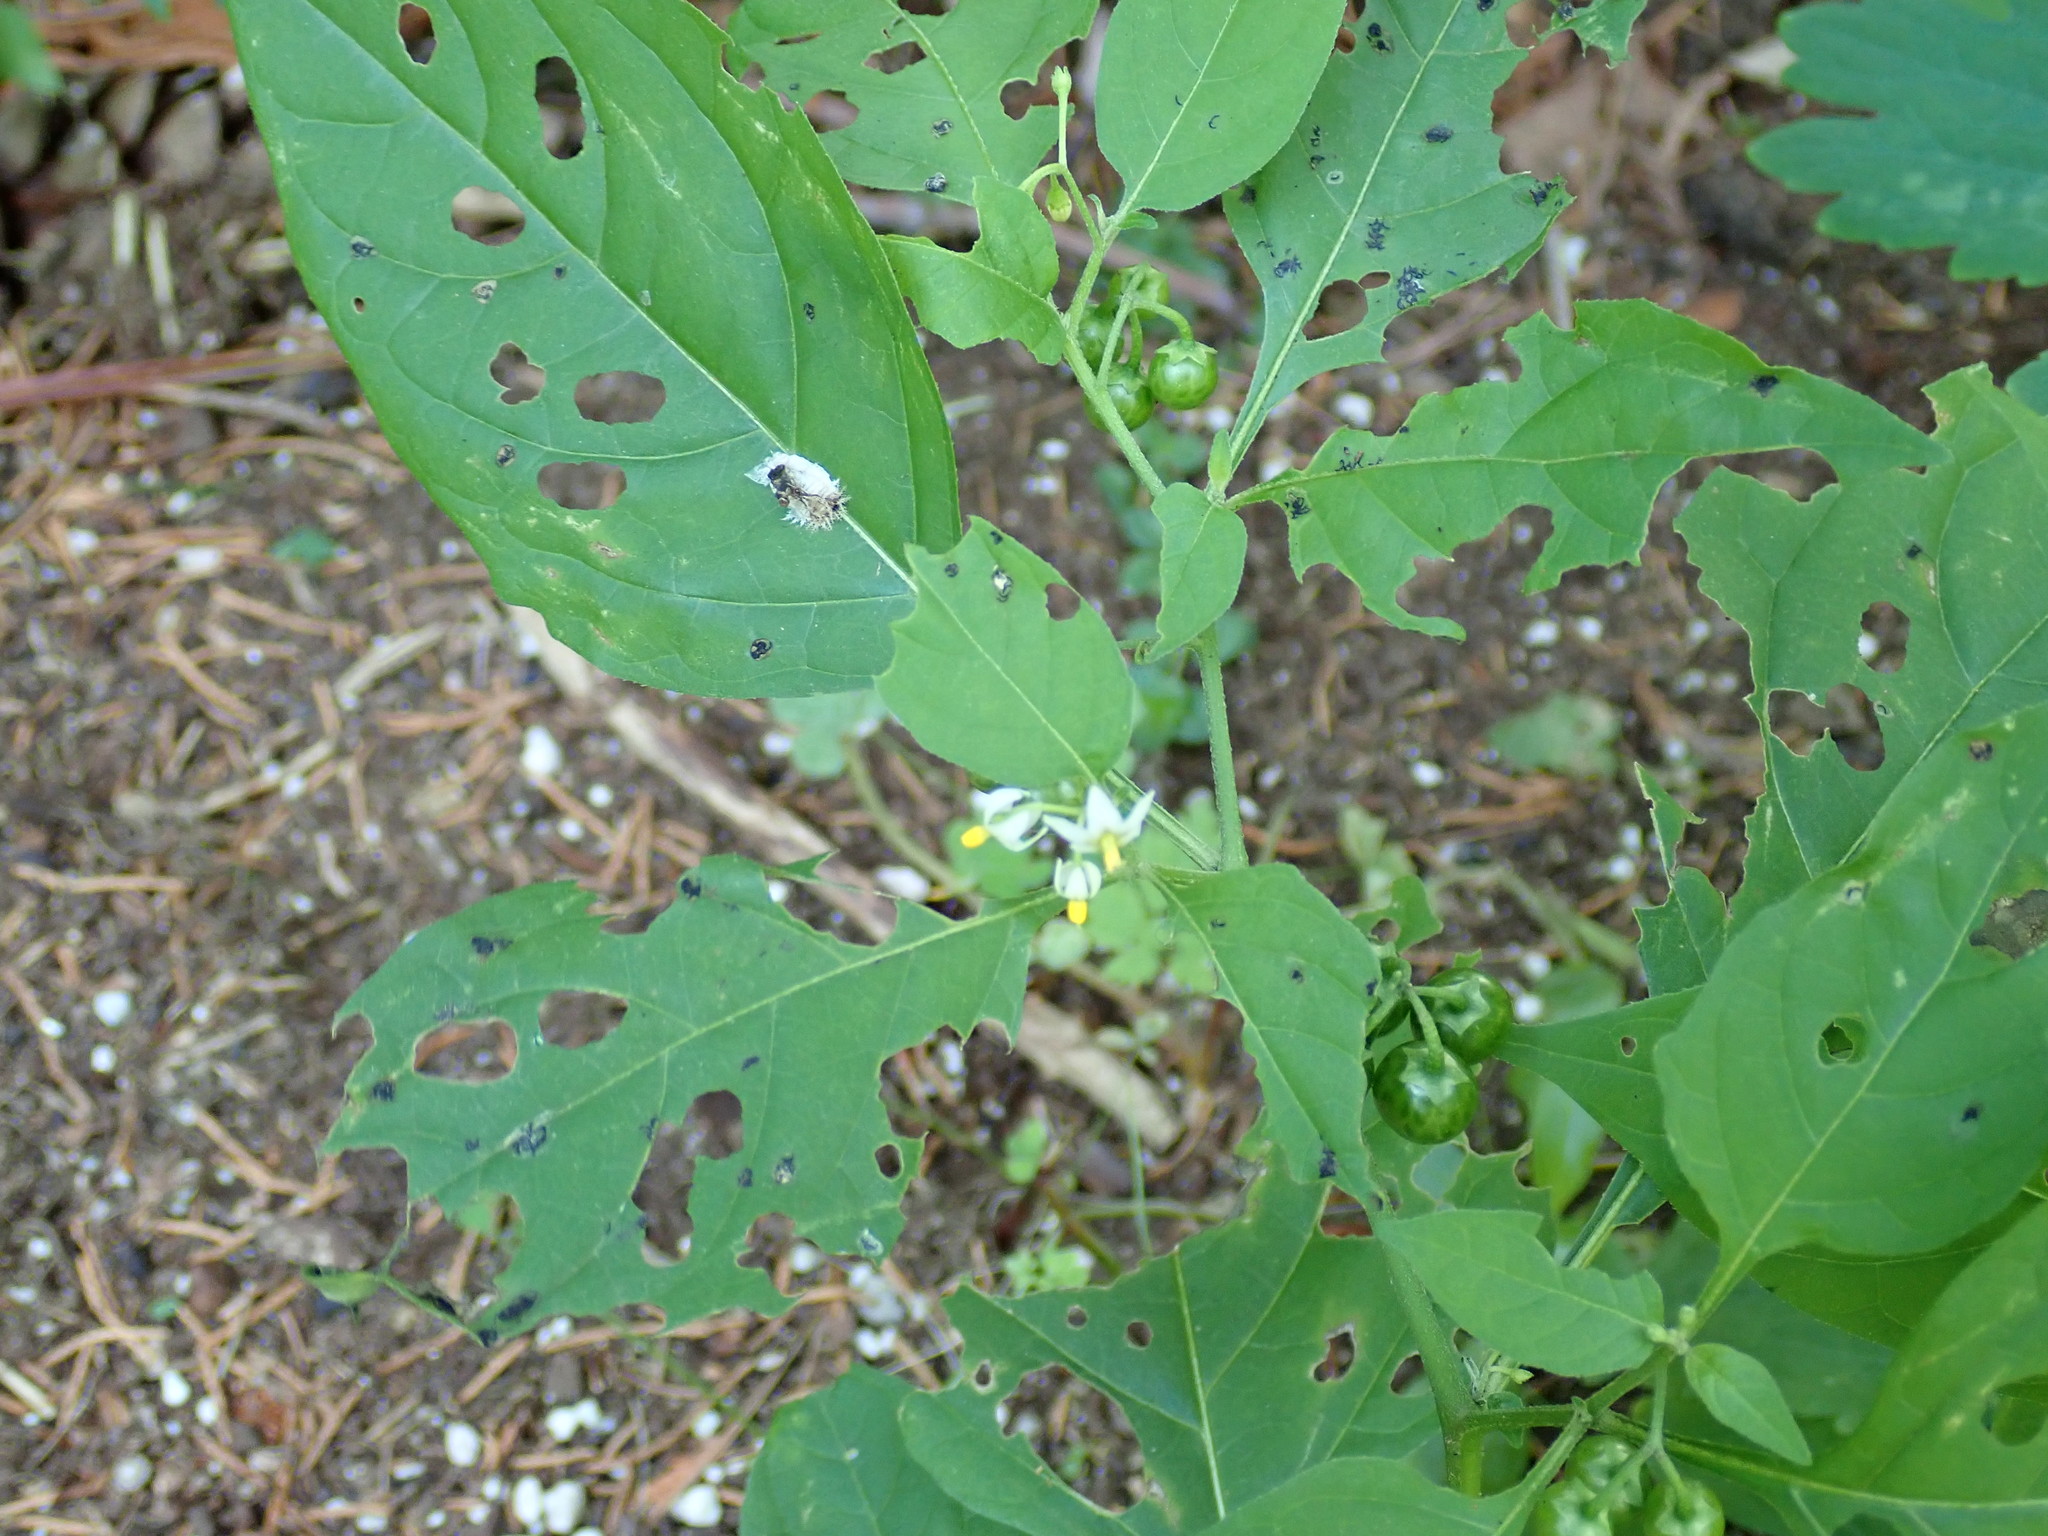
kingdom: Plantae
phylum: Tracheophyta
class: Magnoliopsida
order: Solanales
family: Solanaceae
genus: Solanum
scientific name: Solanum emulans
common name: Eastern black nightshade
